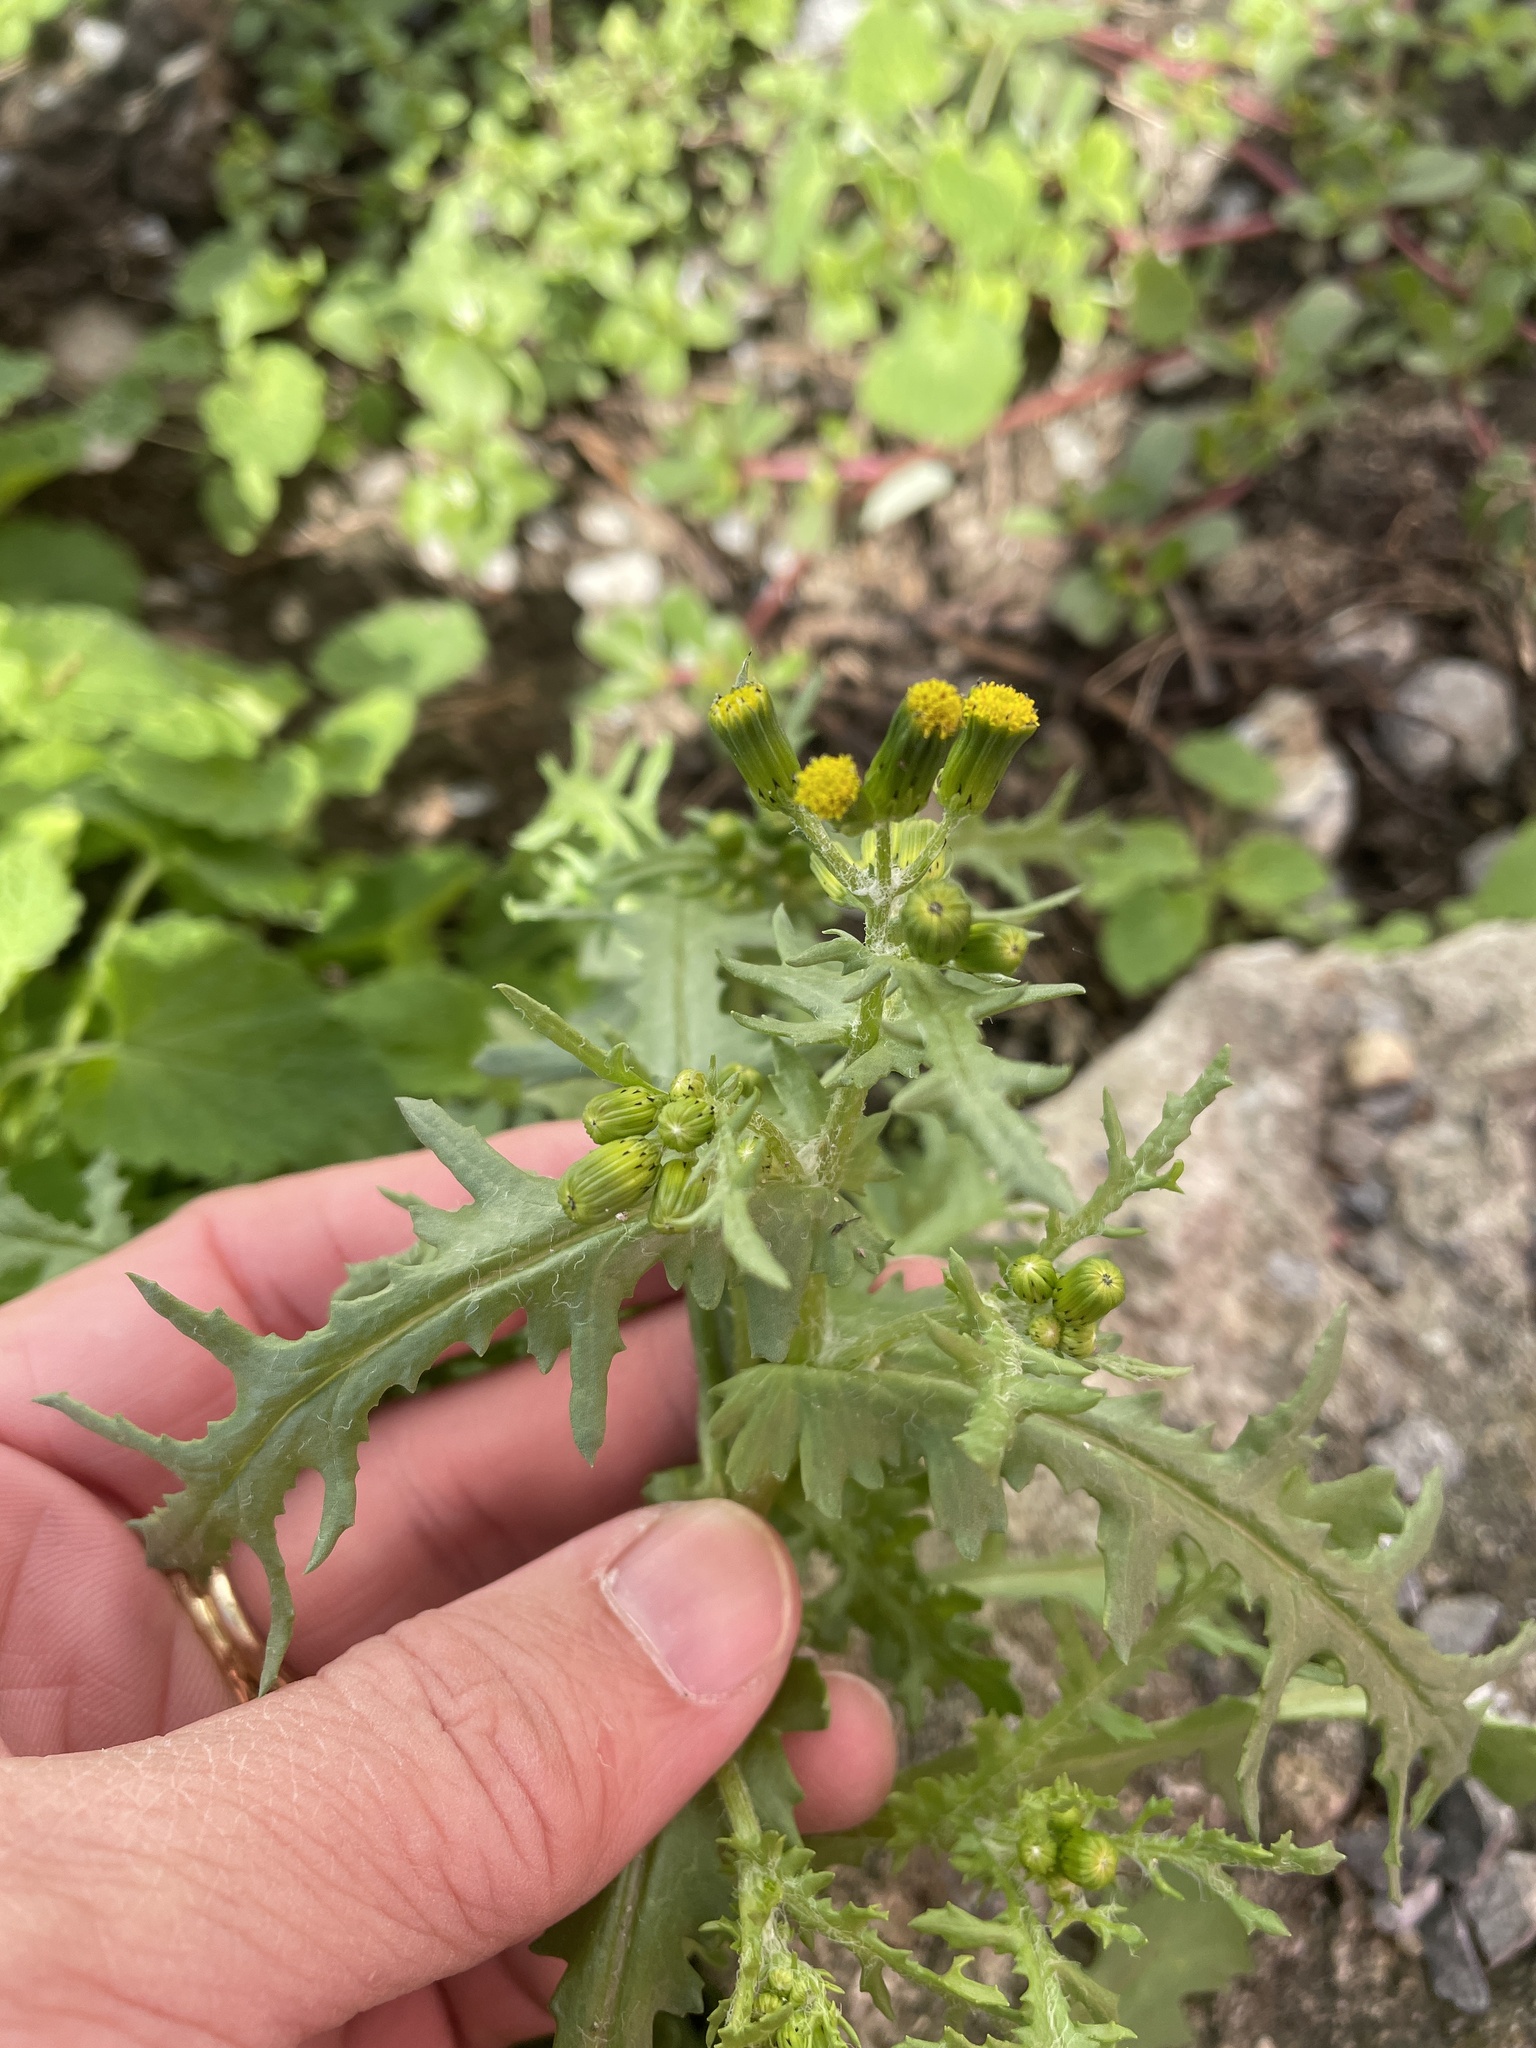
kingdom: Plantae
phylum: Tracheophyta
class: Magnoliopsida
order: Asterales
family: Asteraceae
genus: Senecio
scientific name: Senecio vulgaris
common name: Old-man-in-the-spring
